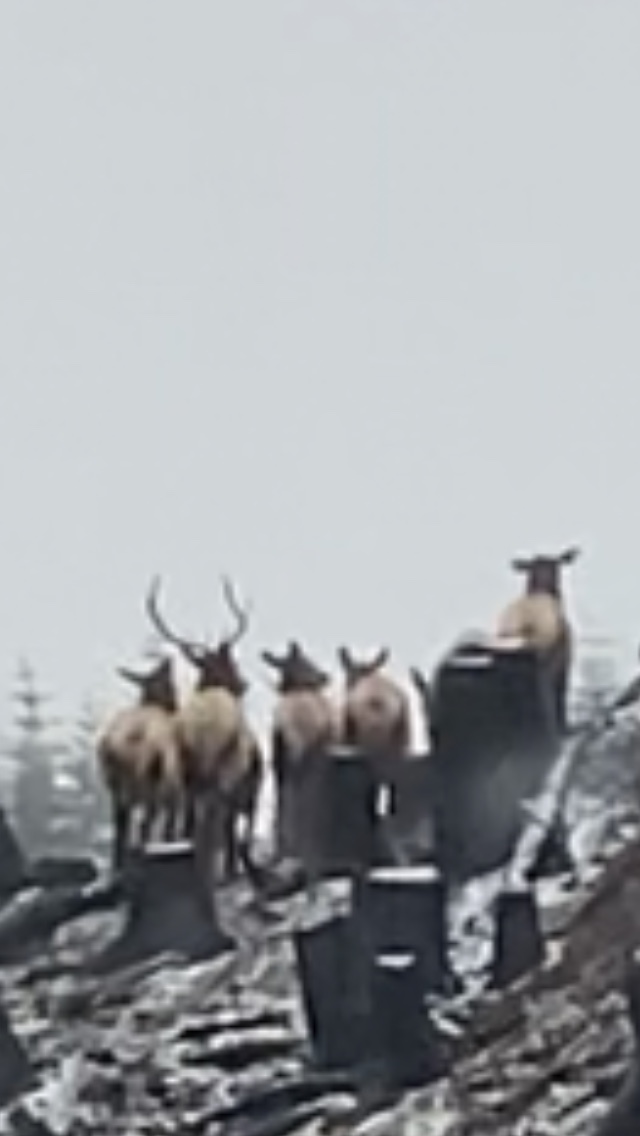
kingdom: Animalia
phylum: Chordata
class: Mammalia
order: Artiodactyla
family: Cervidae
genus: Cervus
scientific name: Cervus elaphus
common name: Red deer
